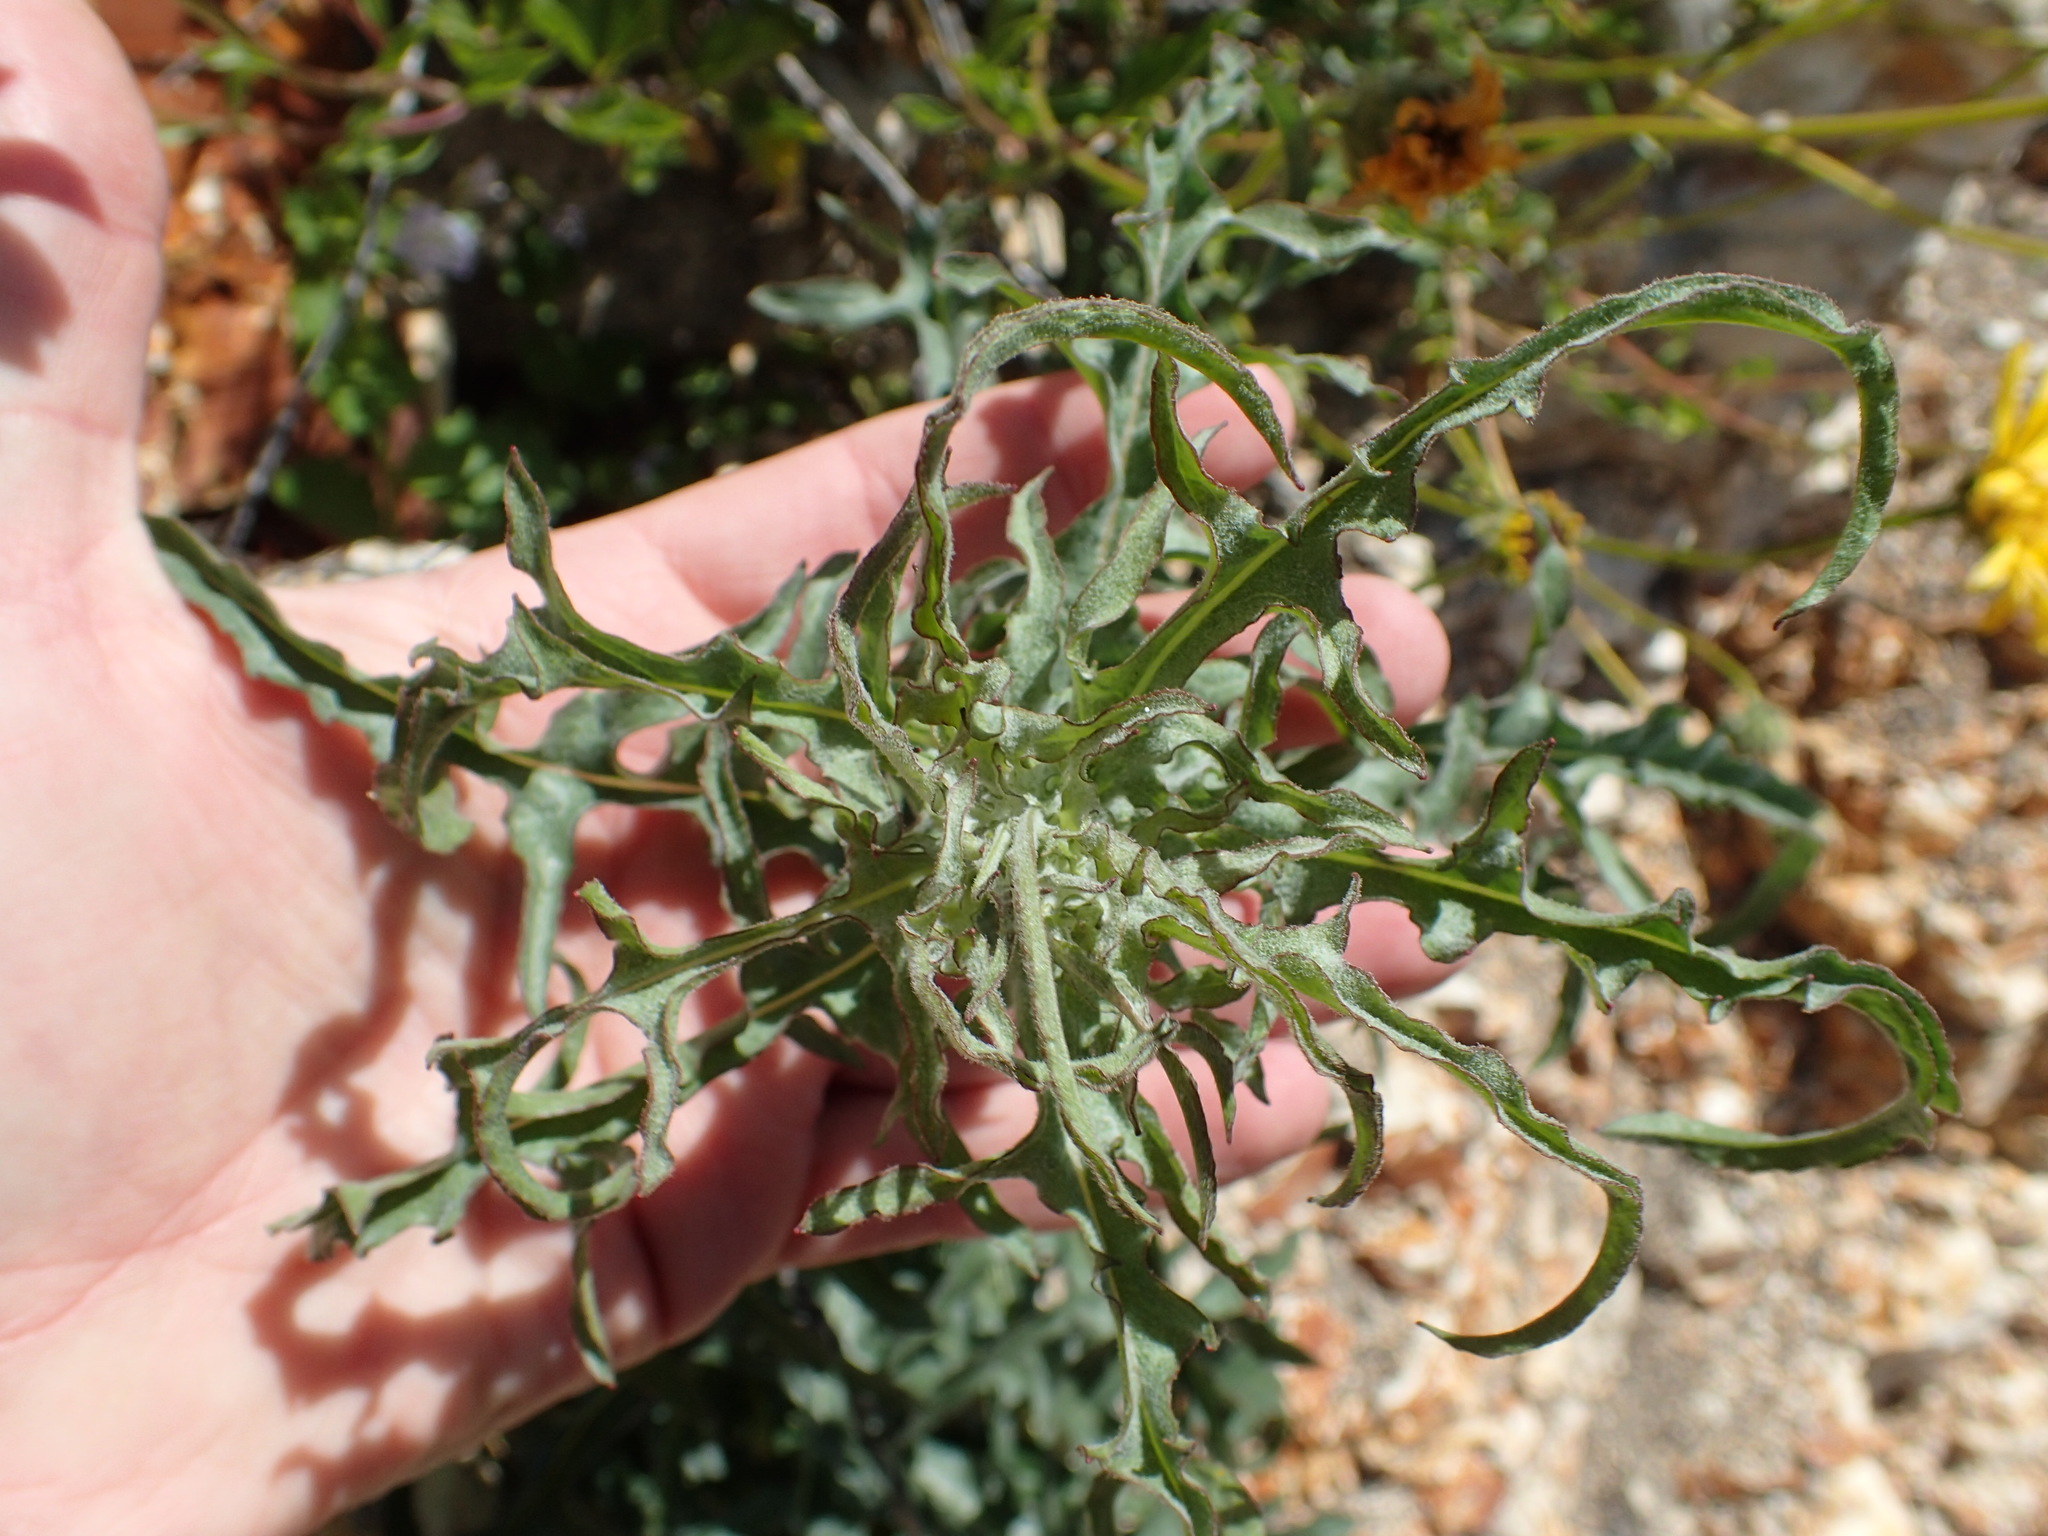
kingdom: Plantae
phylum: Tracheophyta
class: Magnoliopsida
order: Asterales
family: Asteraceae
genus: Rafinesquia
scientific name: Rafinesquia californica
